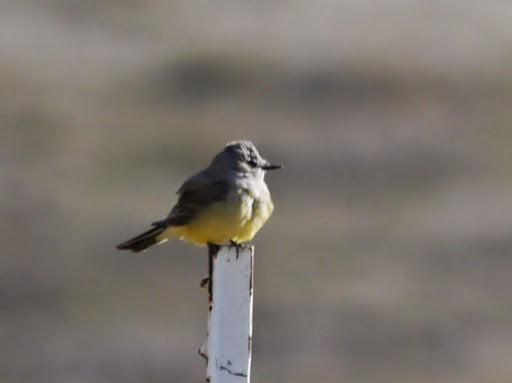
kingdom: Animalia
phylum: Chordata
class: Aves
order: Passeriformes
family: Tyrannidae
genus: Tyrannus
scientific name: Tyrannus verticalis
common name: Western kingbird
